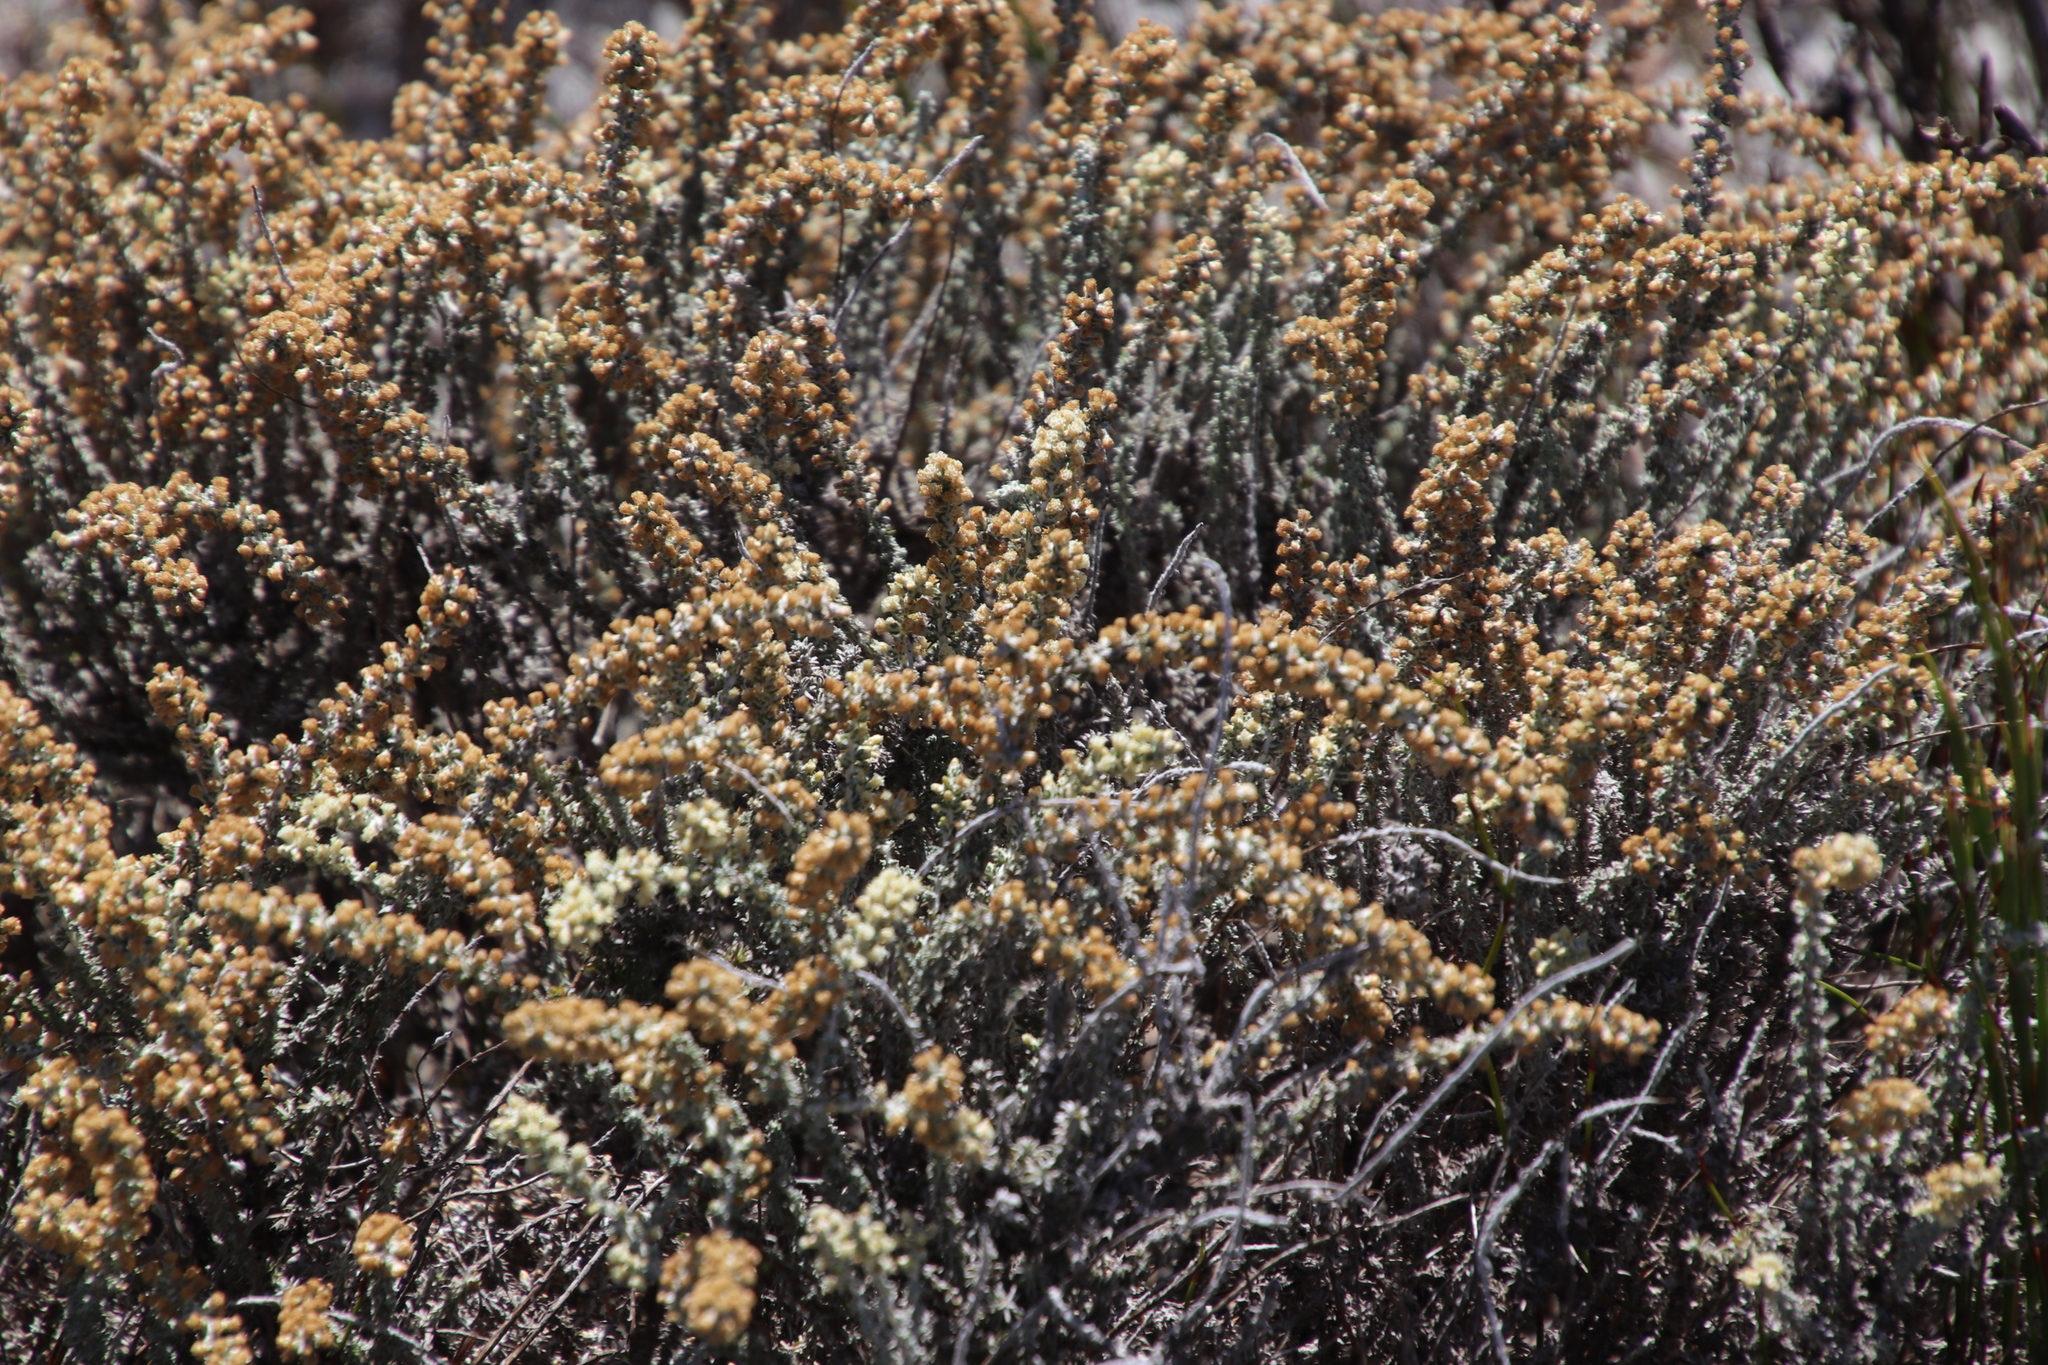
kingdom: Plantae
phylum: Tracheophyta
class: Magnoliopsida
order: Asterales
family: Asteraceae
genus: Seriphium
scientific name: Seriphium cinereum
